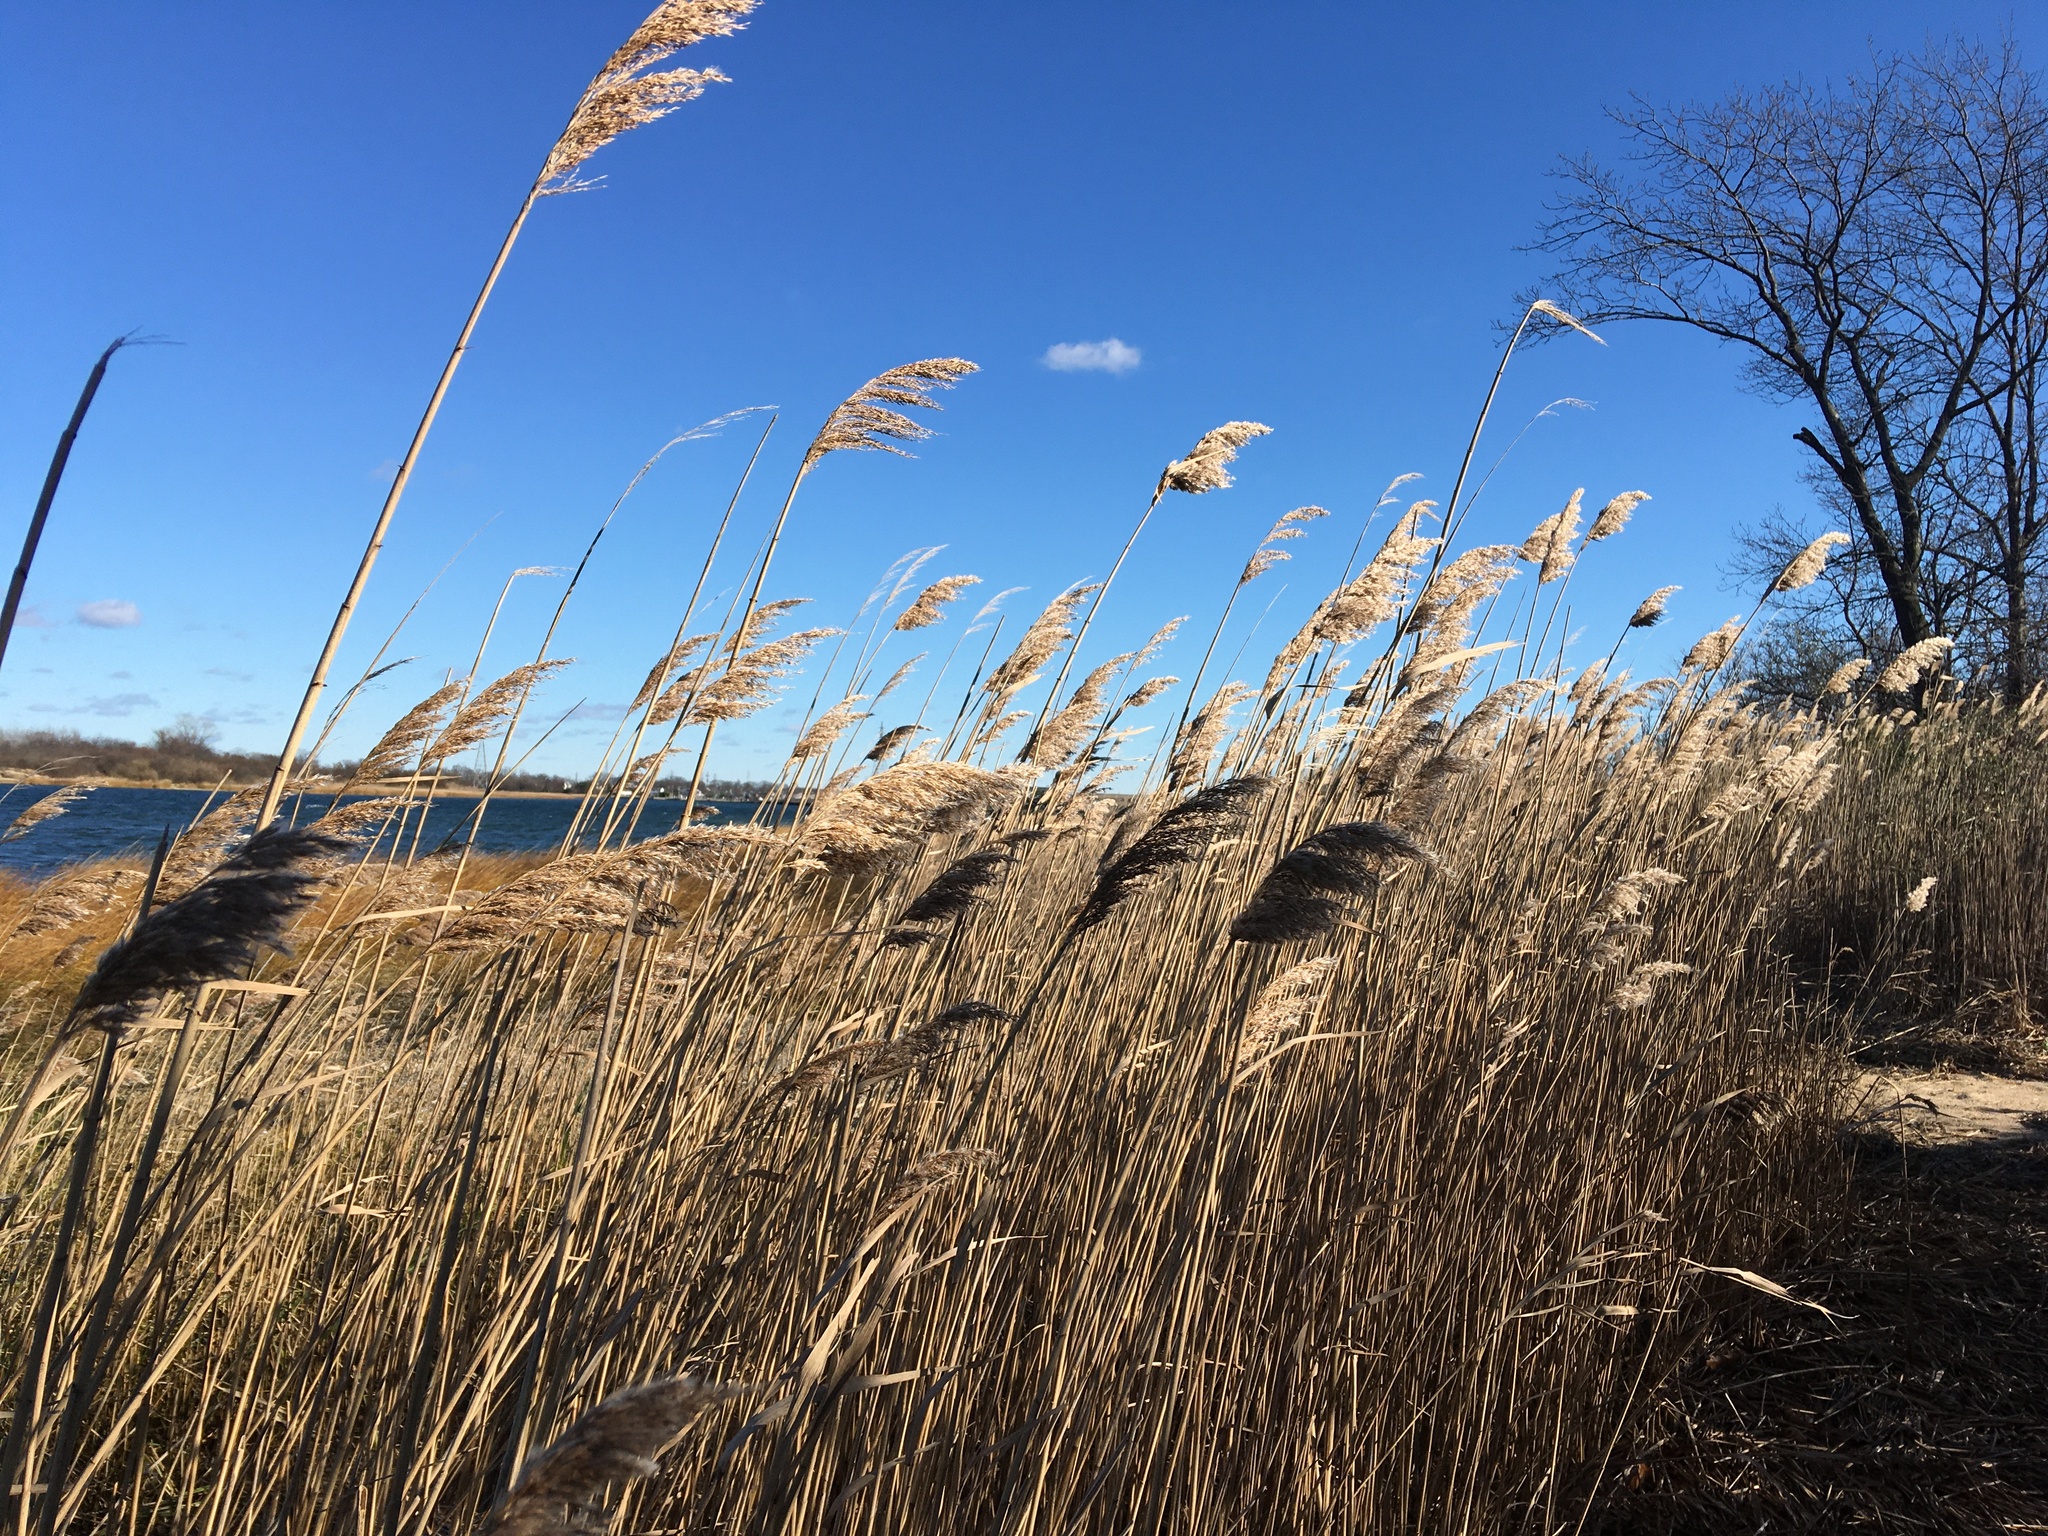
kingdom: Plantae
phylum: Tracheophyta
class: Liliopsida
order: Poales
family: Poaceae
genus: Phragmites
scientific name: Phragmites australis
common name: Common reed
